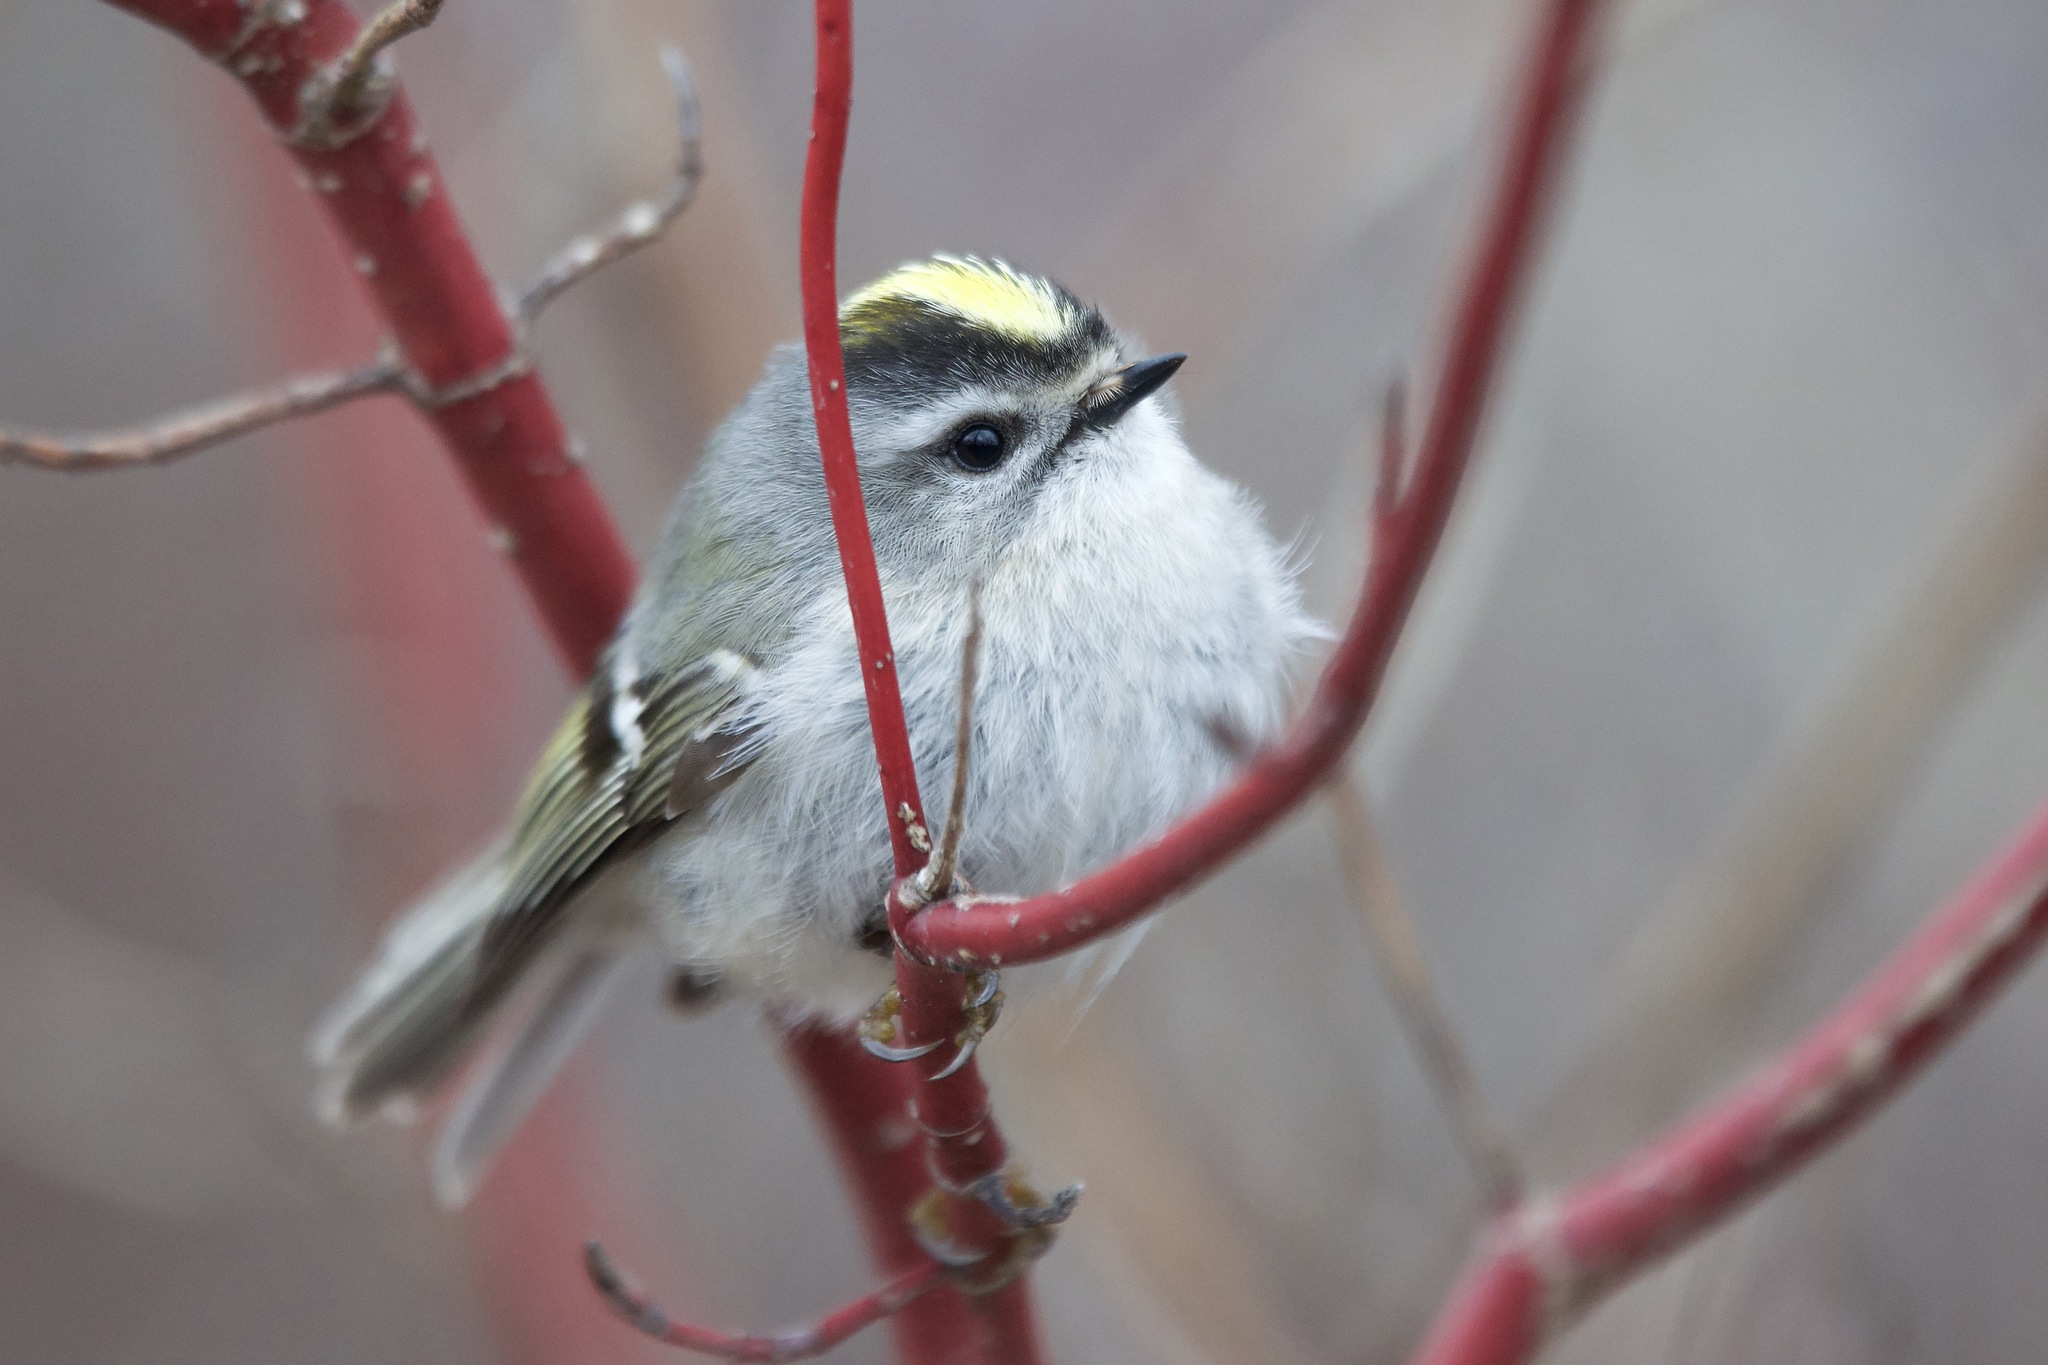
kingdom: Animalia
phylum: Chordata
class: Aves
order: Passeriformes
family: Regulidae
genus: Regulus
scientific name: Regulus satrapa
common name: Golden-crowned kinglet
